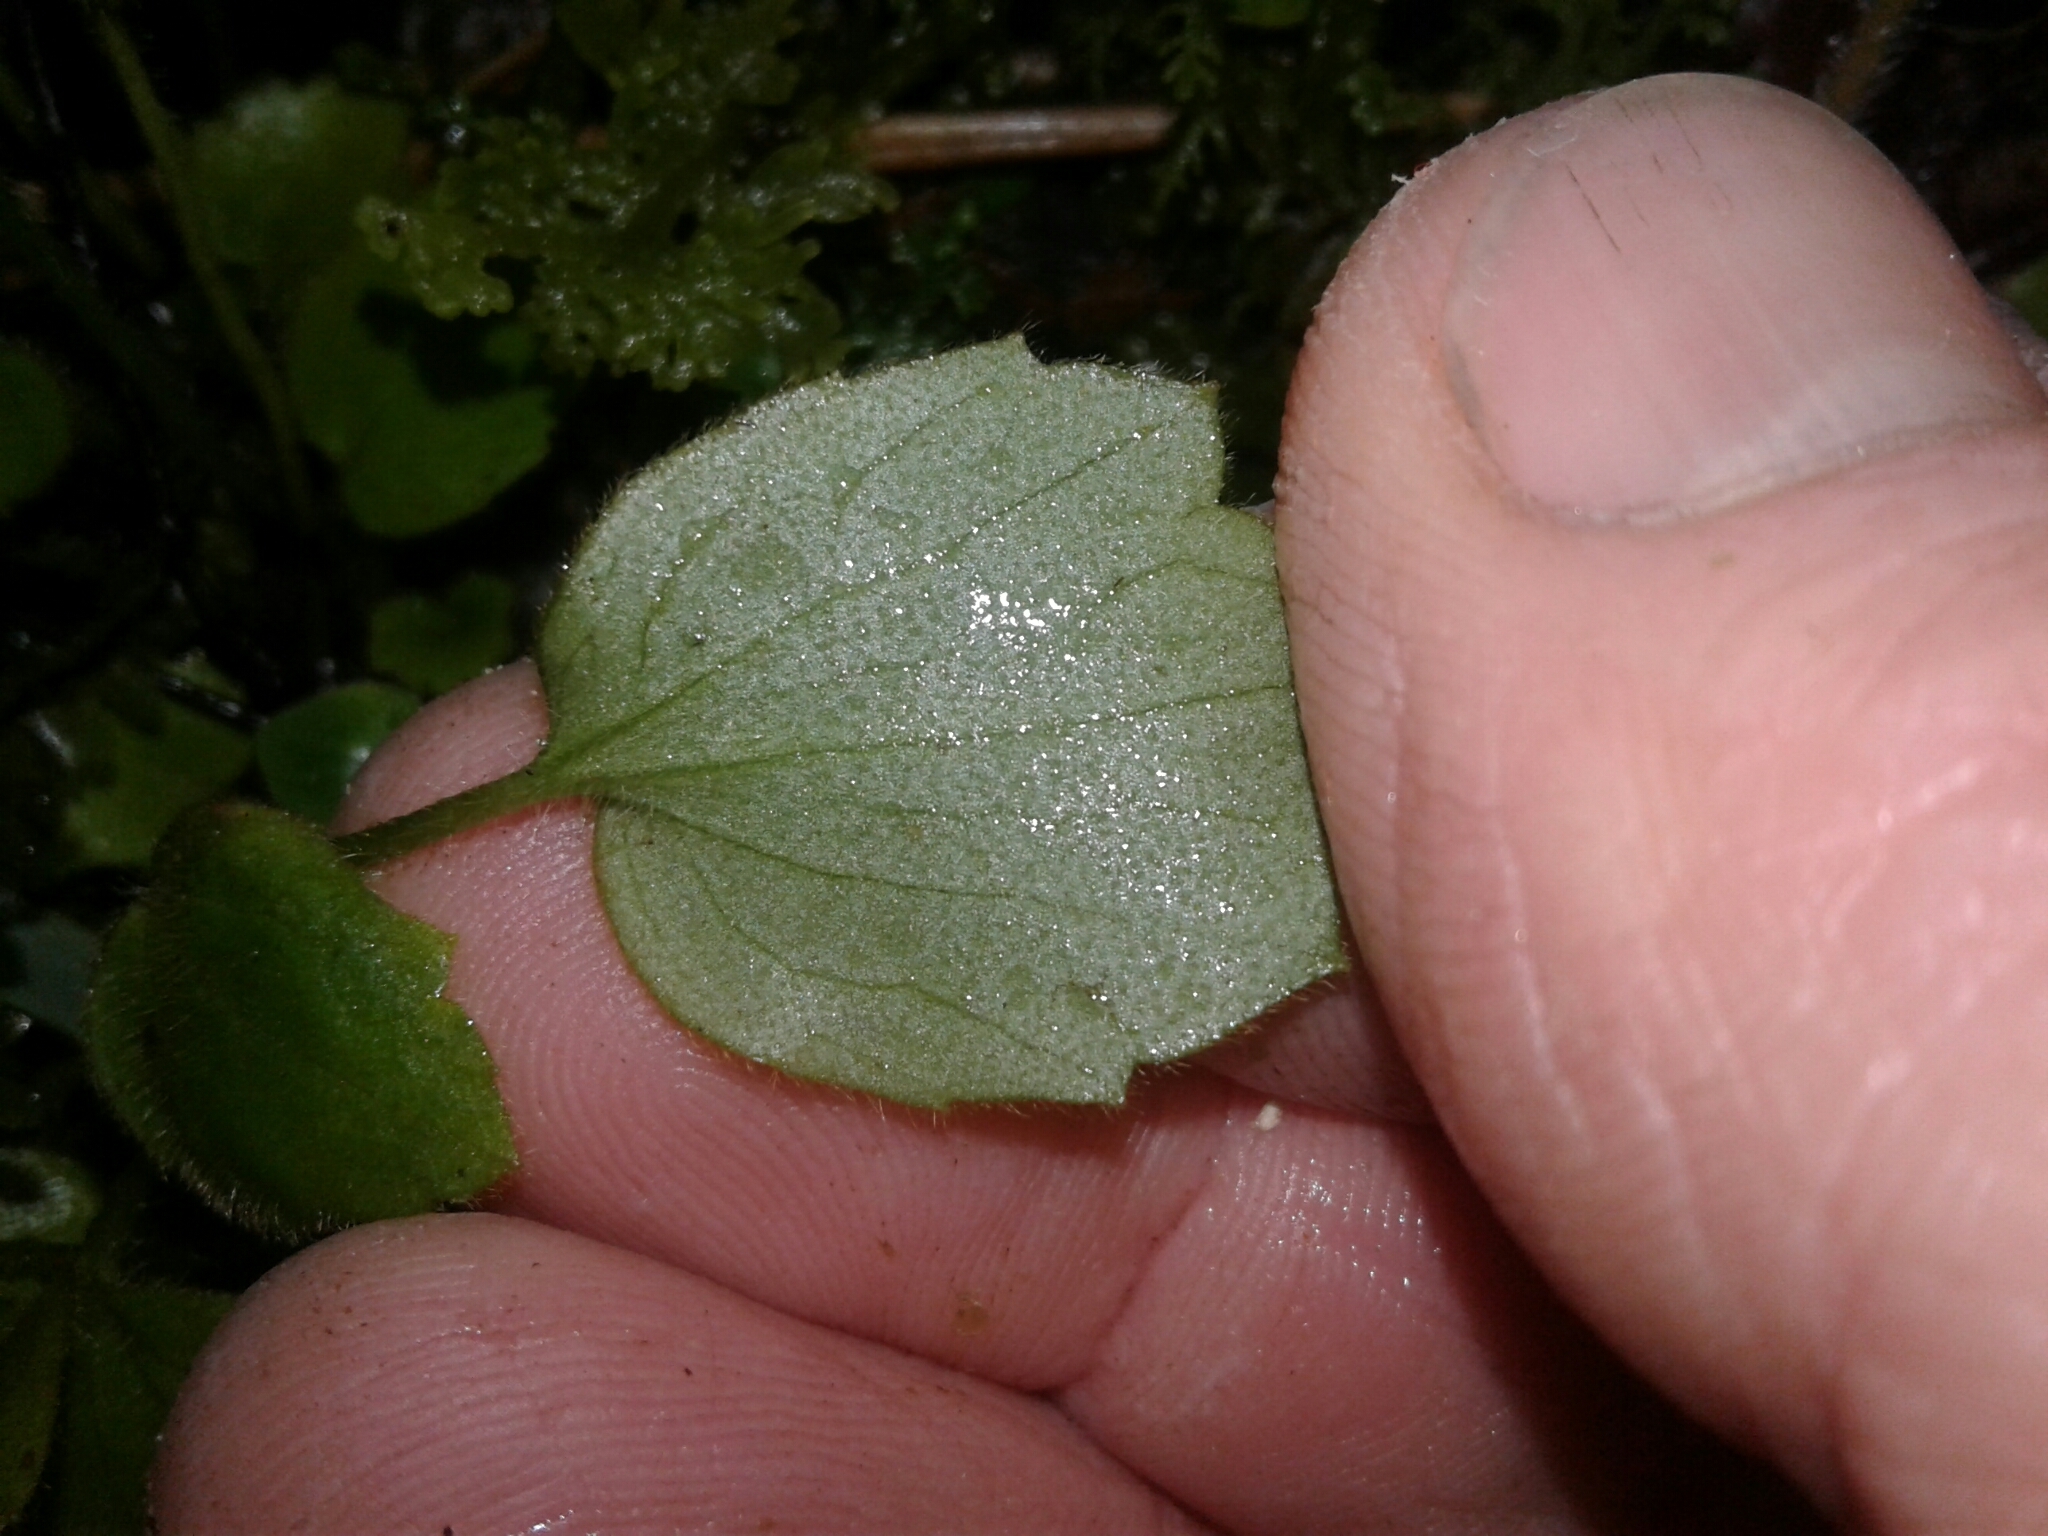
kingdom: Plantae
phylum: Tracheophyta
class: Magnoliopsida
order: Ranunculales
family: Ranunculaceae
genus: Ranunculus
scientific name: Ranunculus reflexus
